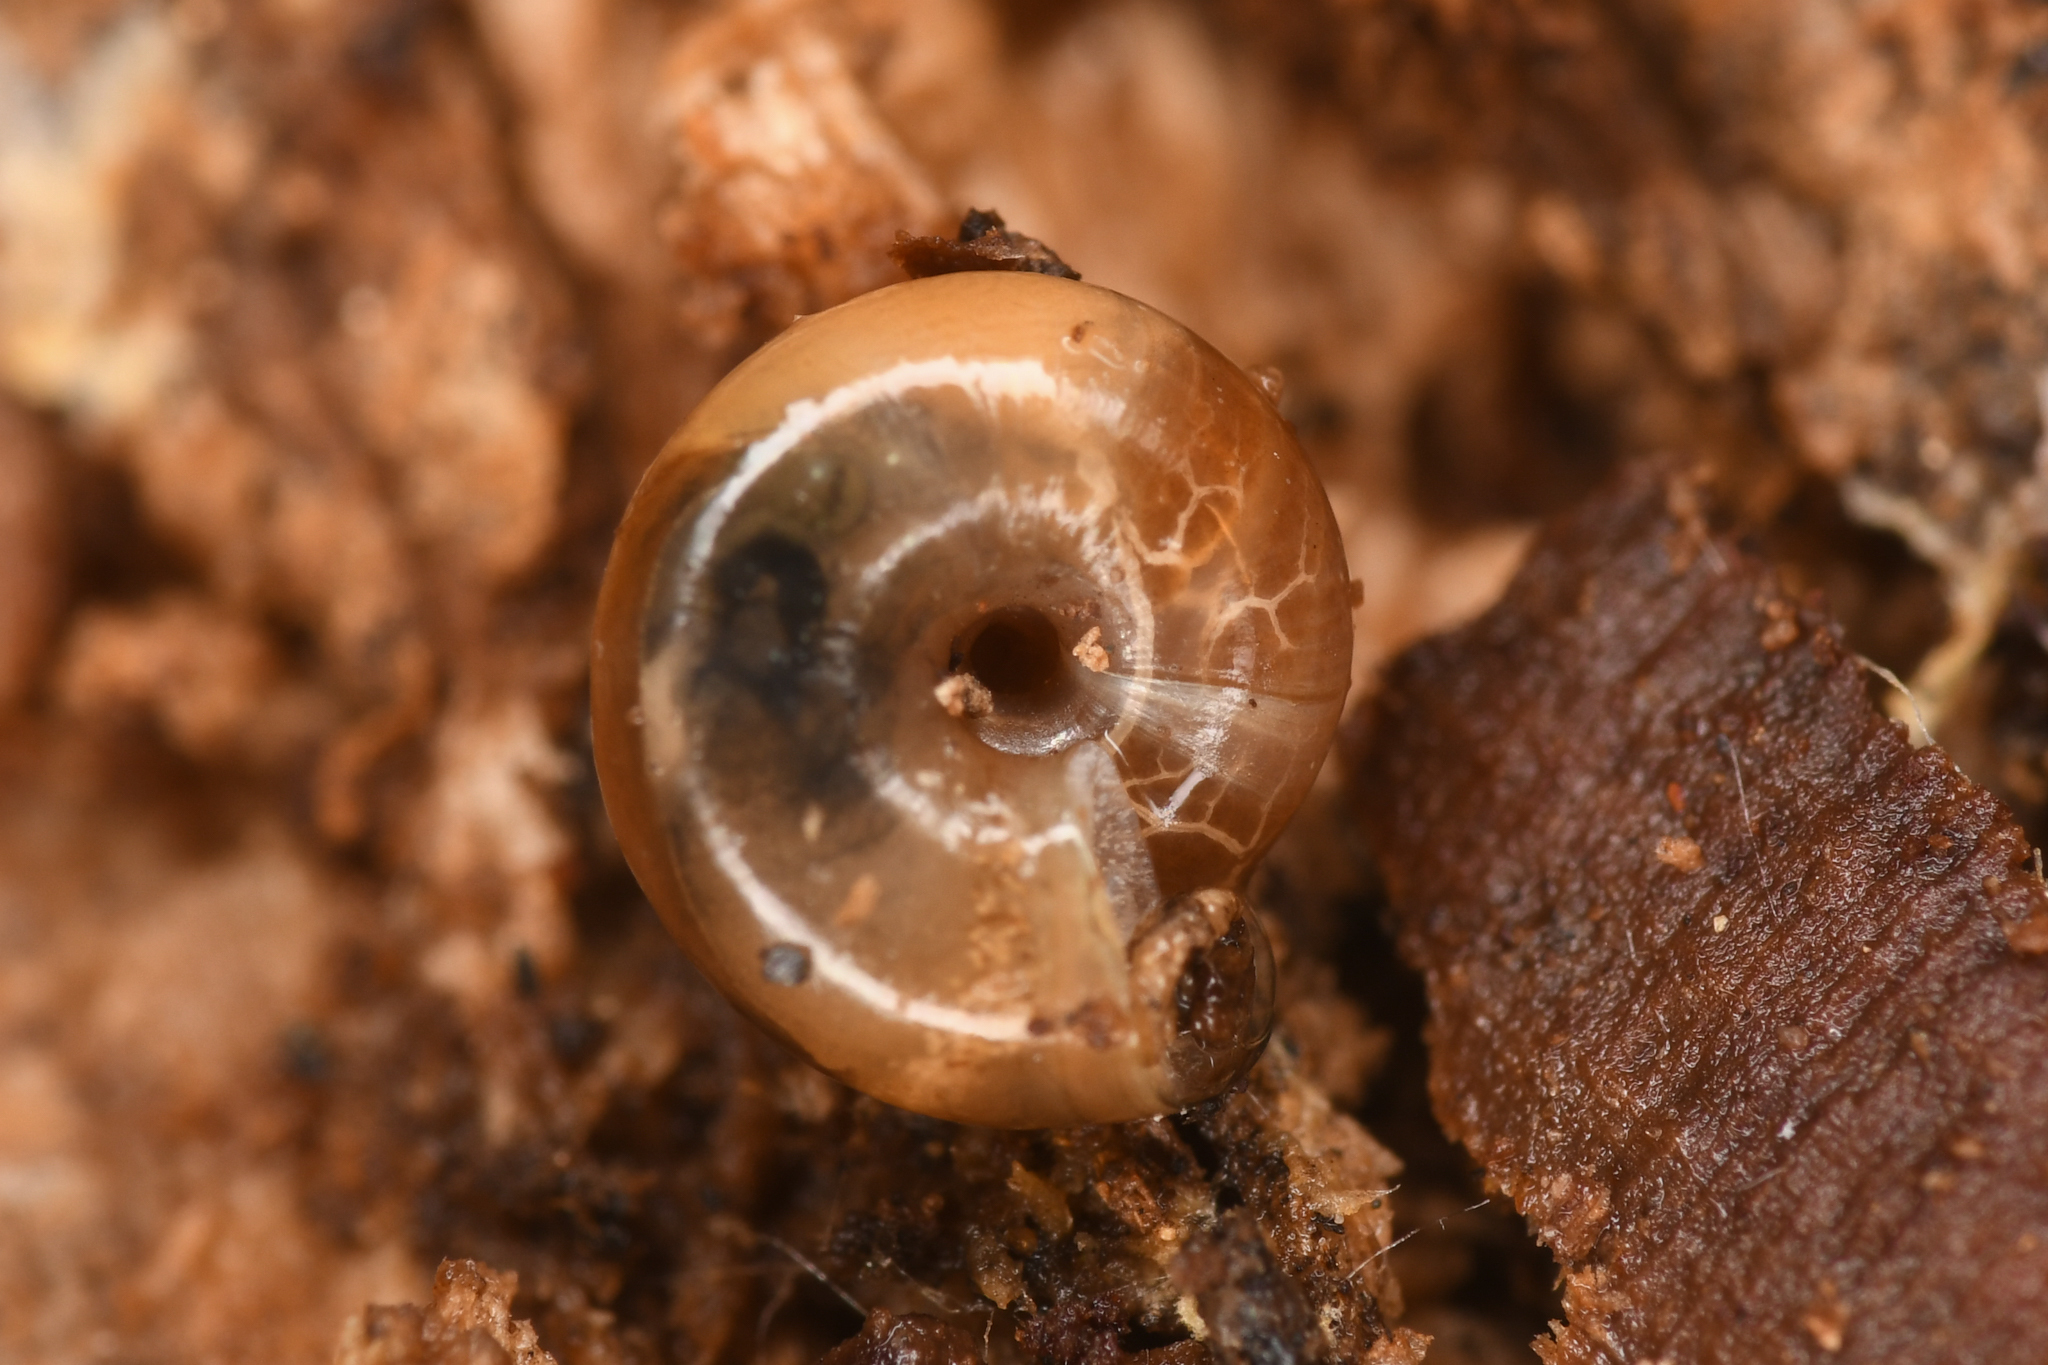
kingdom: Animalia
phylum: Mollusca
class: Gastropoda
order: Stylommatophora
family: Gastrodontidae
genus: Zonitoides
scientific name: Zonitoides arboreus
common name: Quick gloss
